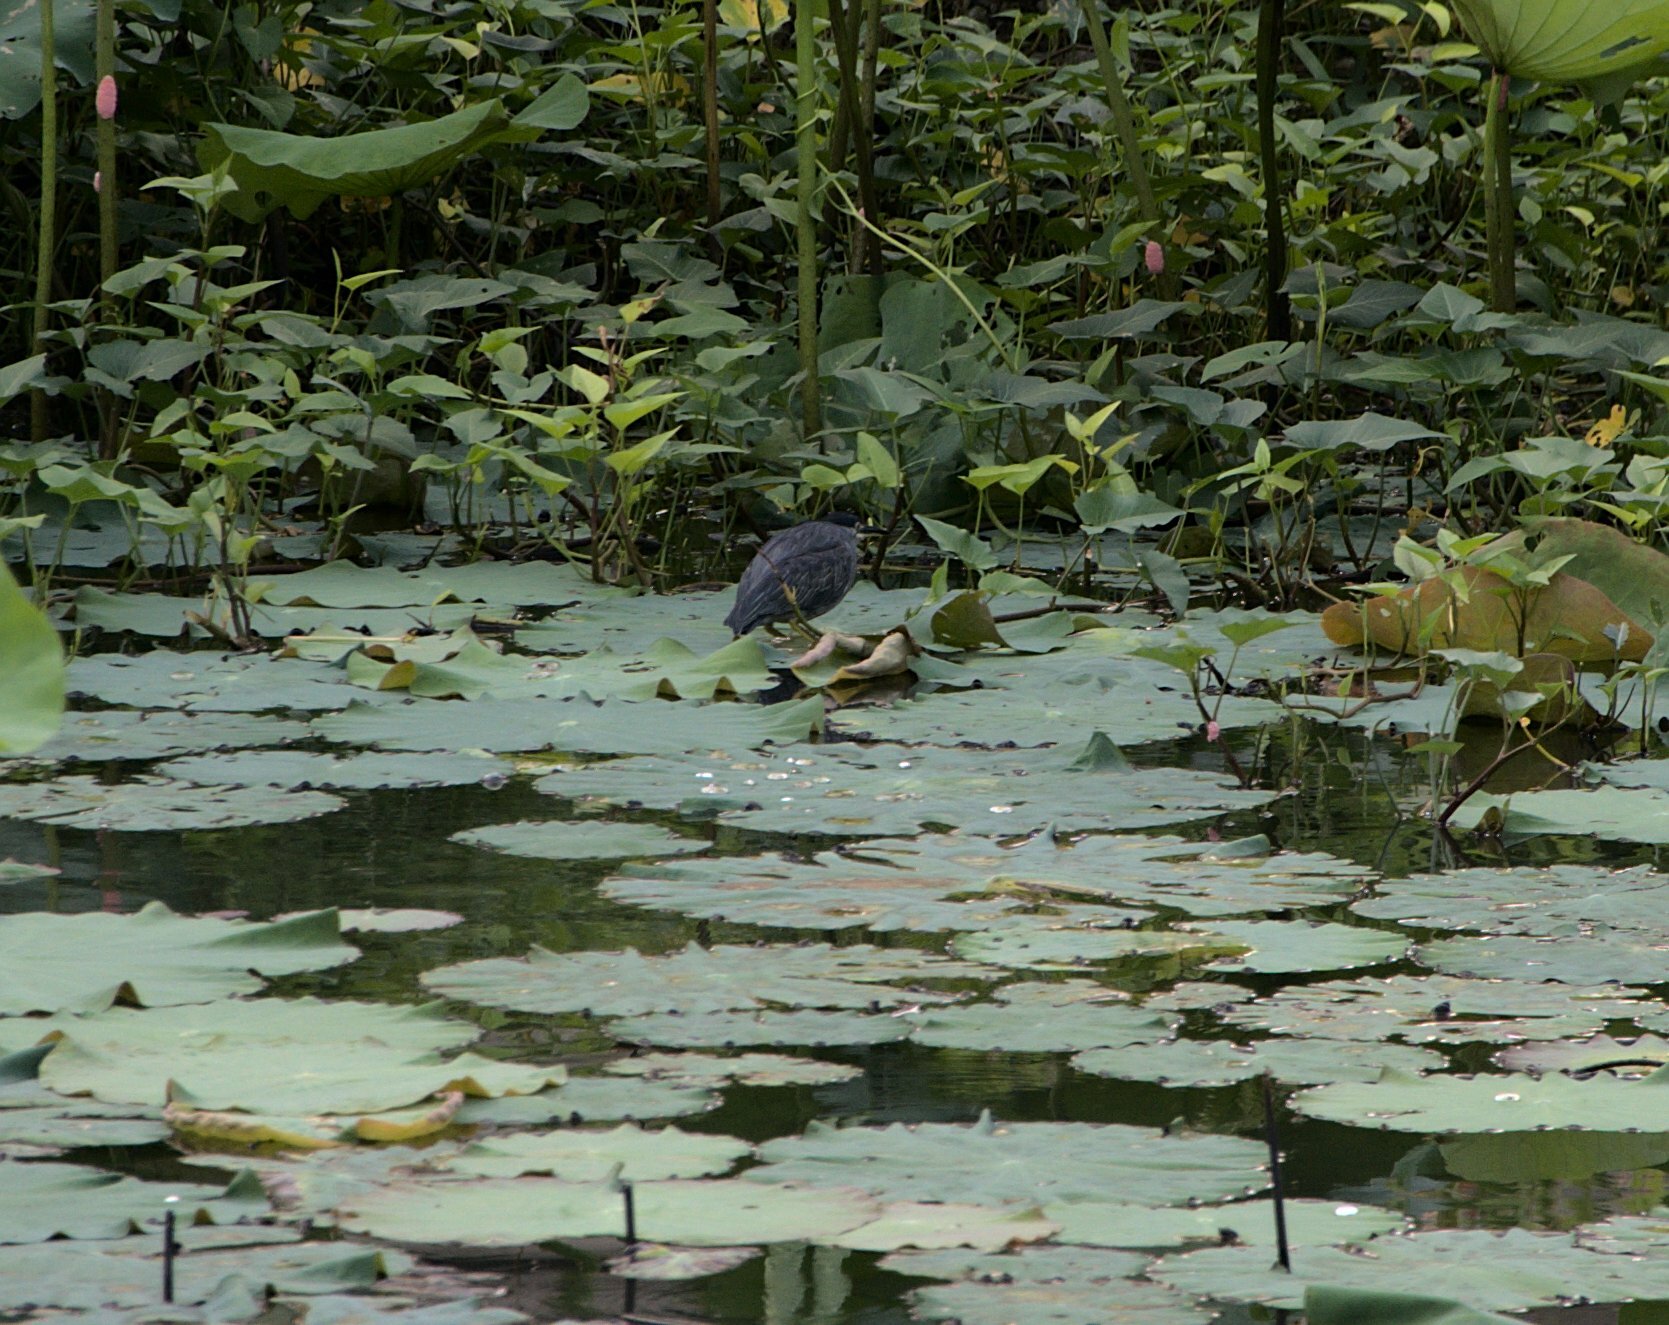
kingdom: Animalia
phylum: Chordata
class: Aves
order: Pelecaniformes
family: Ardeidae
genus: Butorides
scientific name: Butorides striata
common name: Striated heron
